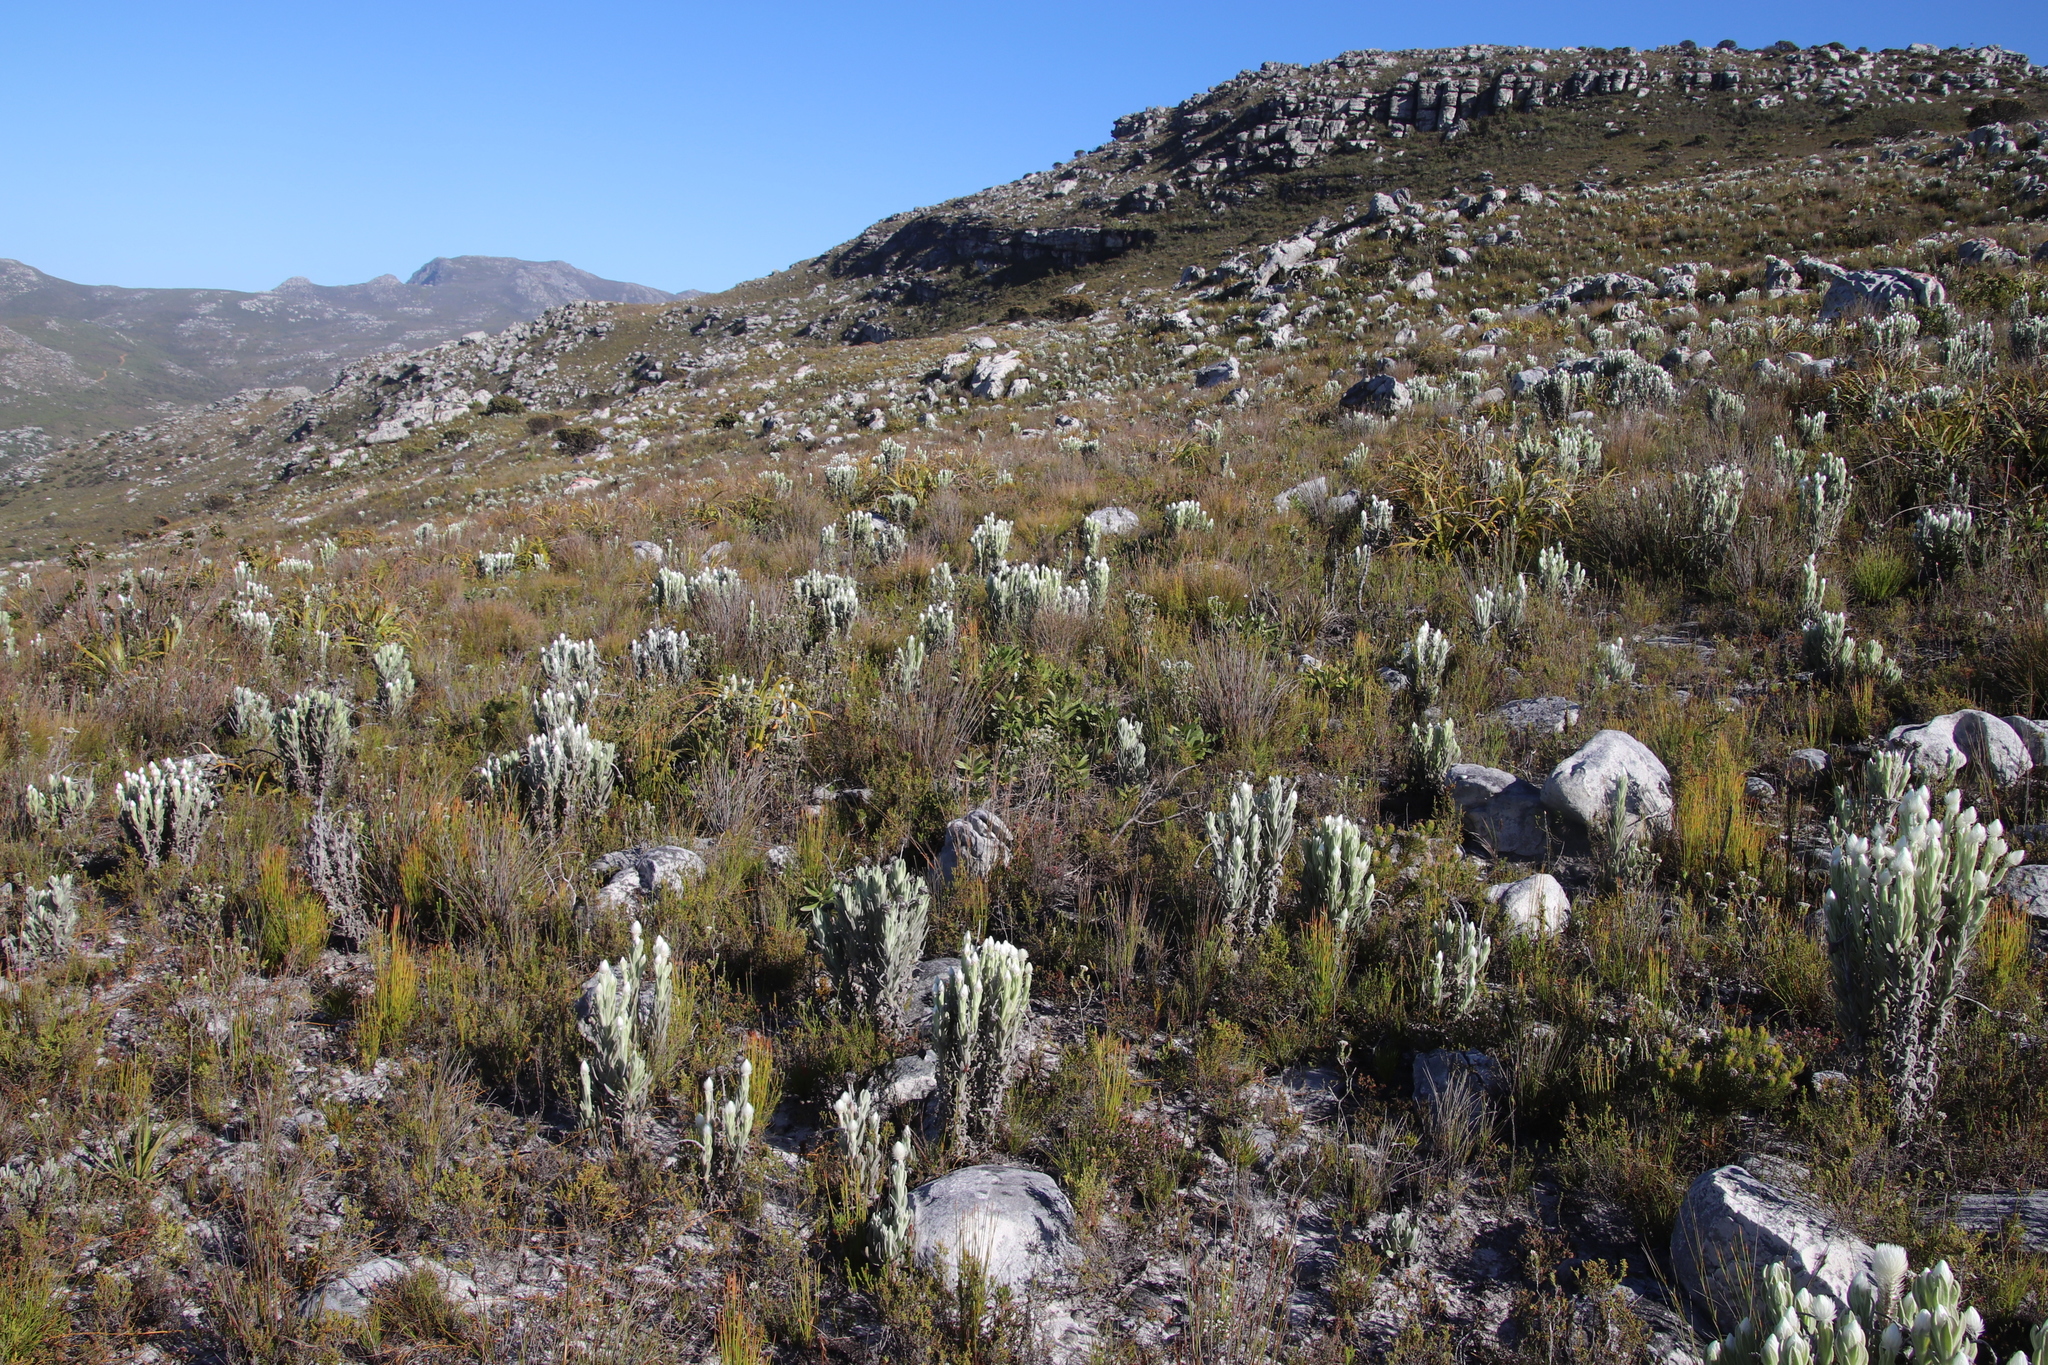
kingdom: Plantae
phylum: Tracheophyta
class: Magnoliopsida
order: Proteales
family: Proteaceae
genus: Leucadendron
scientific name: Leucadendron laureolum
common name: Golden sunshinebush
